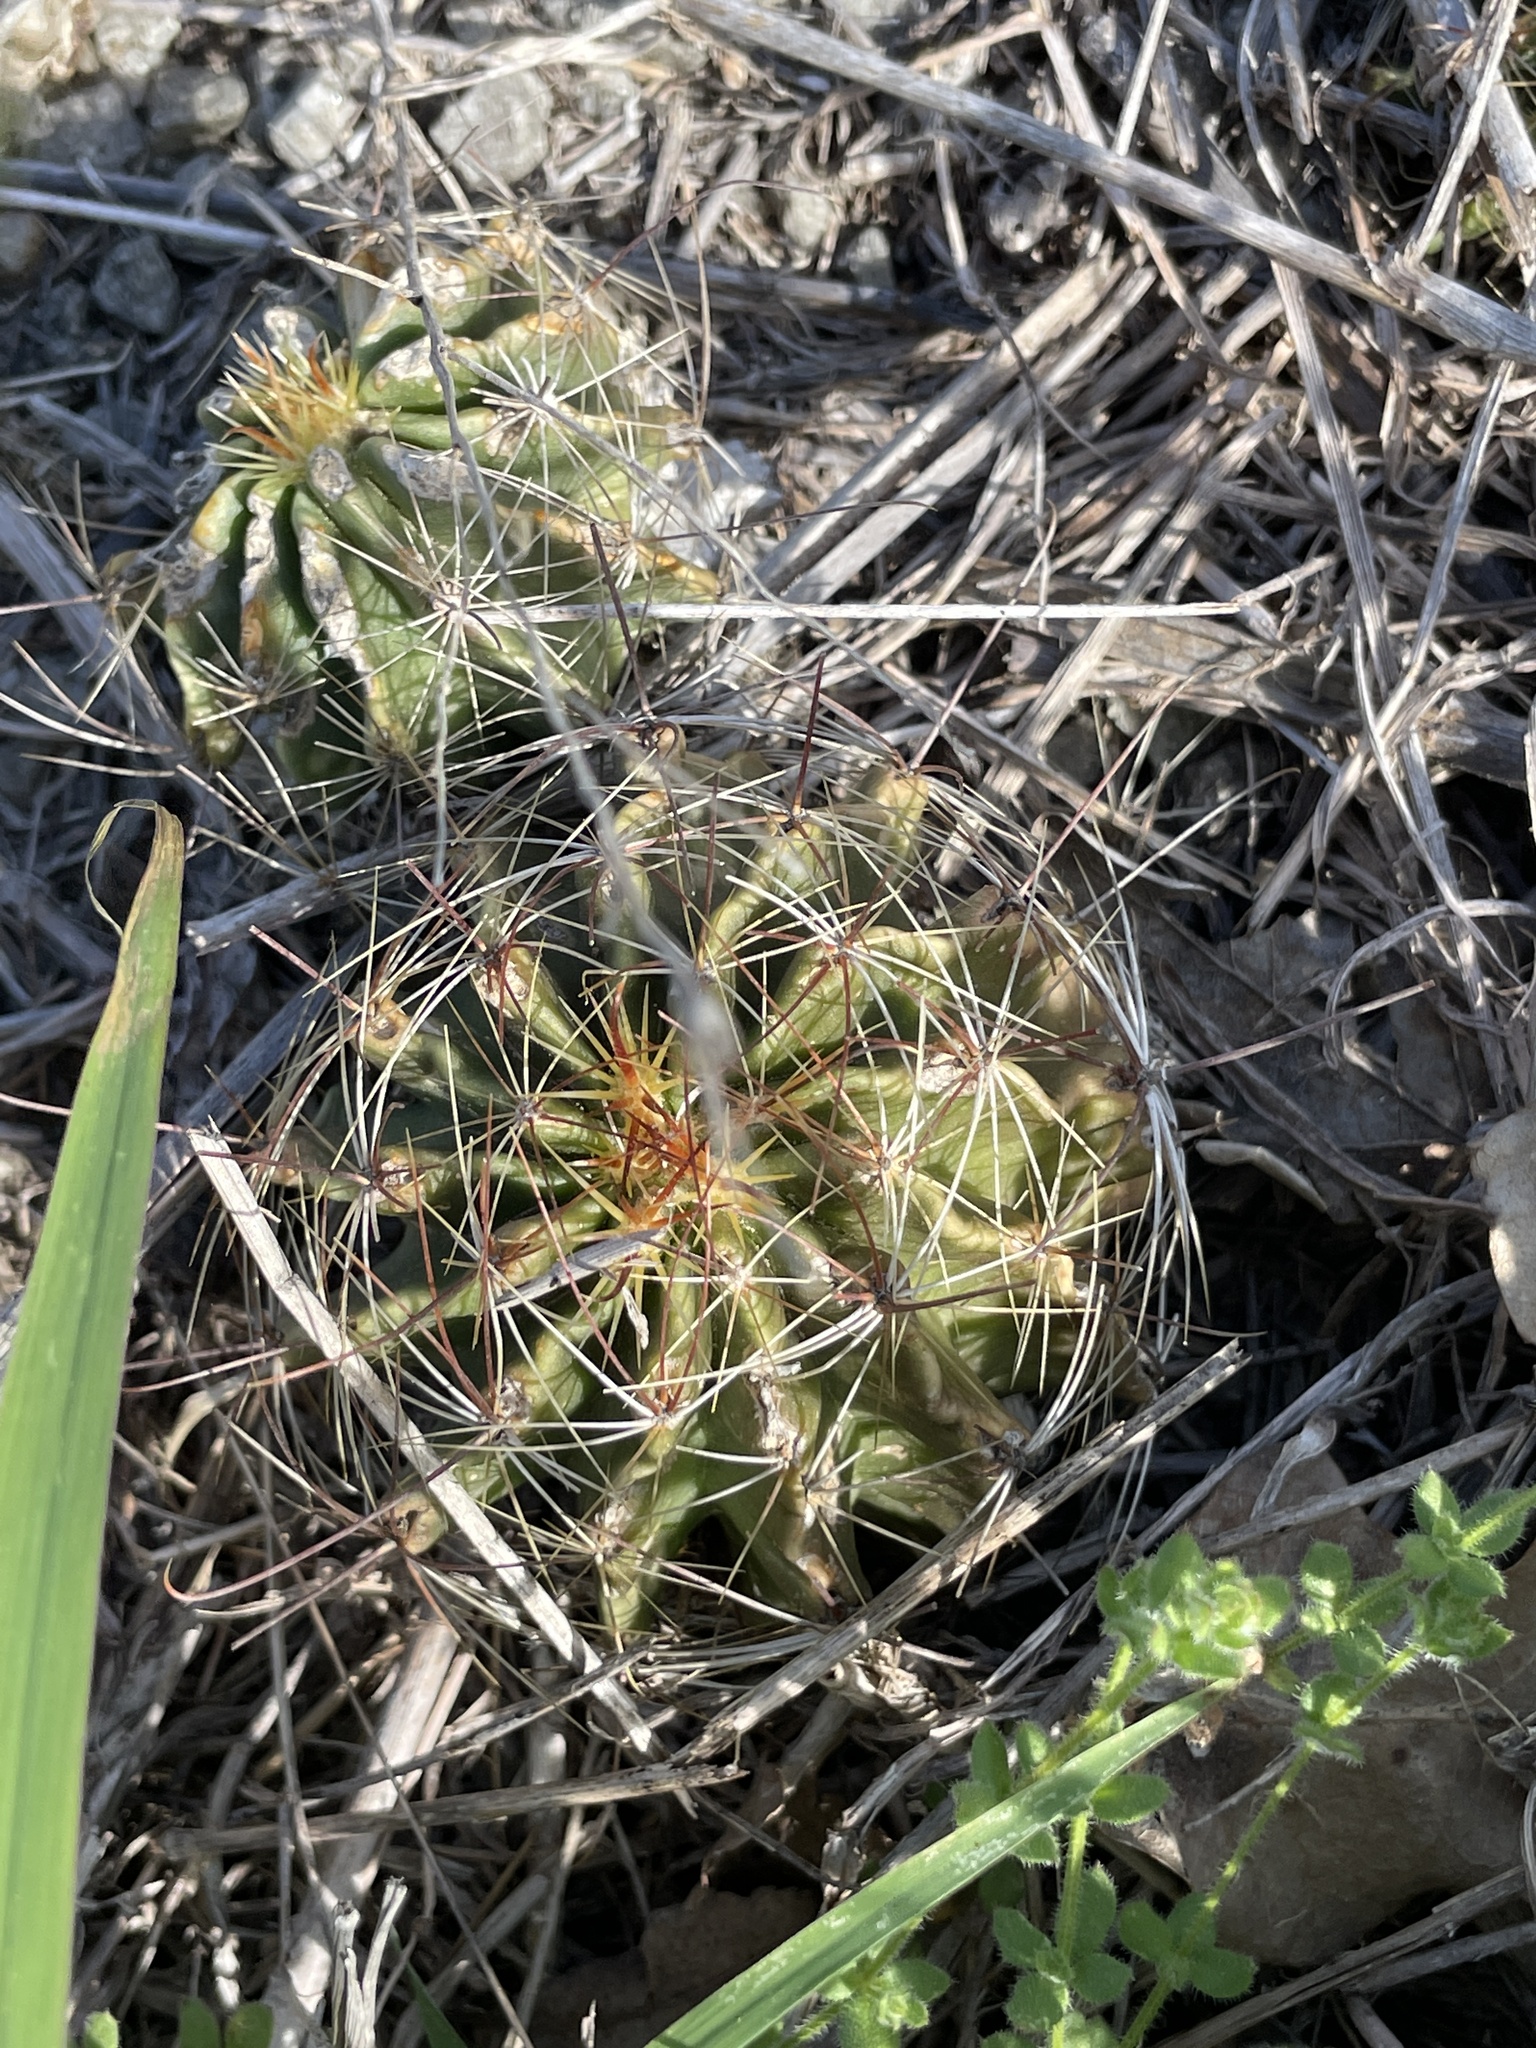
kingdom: Plantae
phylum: Tracheophyta
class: Magnoliopsida
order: Caryophyllales
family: Cactaceae
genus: Thelocactus
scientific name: Thelocactus setispinus
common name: Miniature barrel cactus
